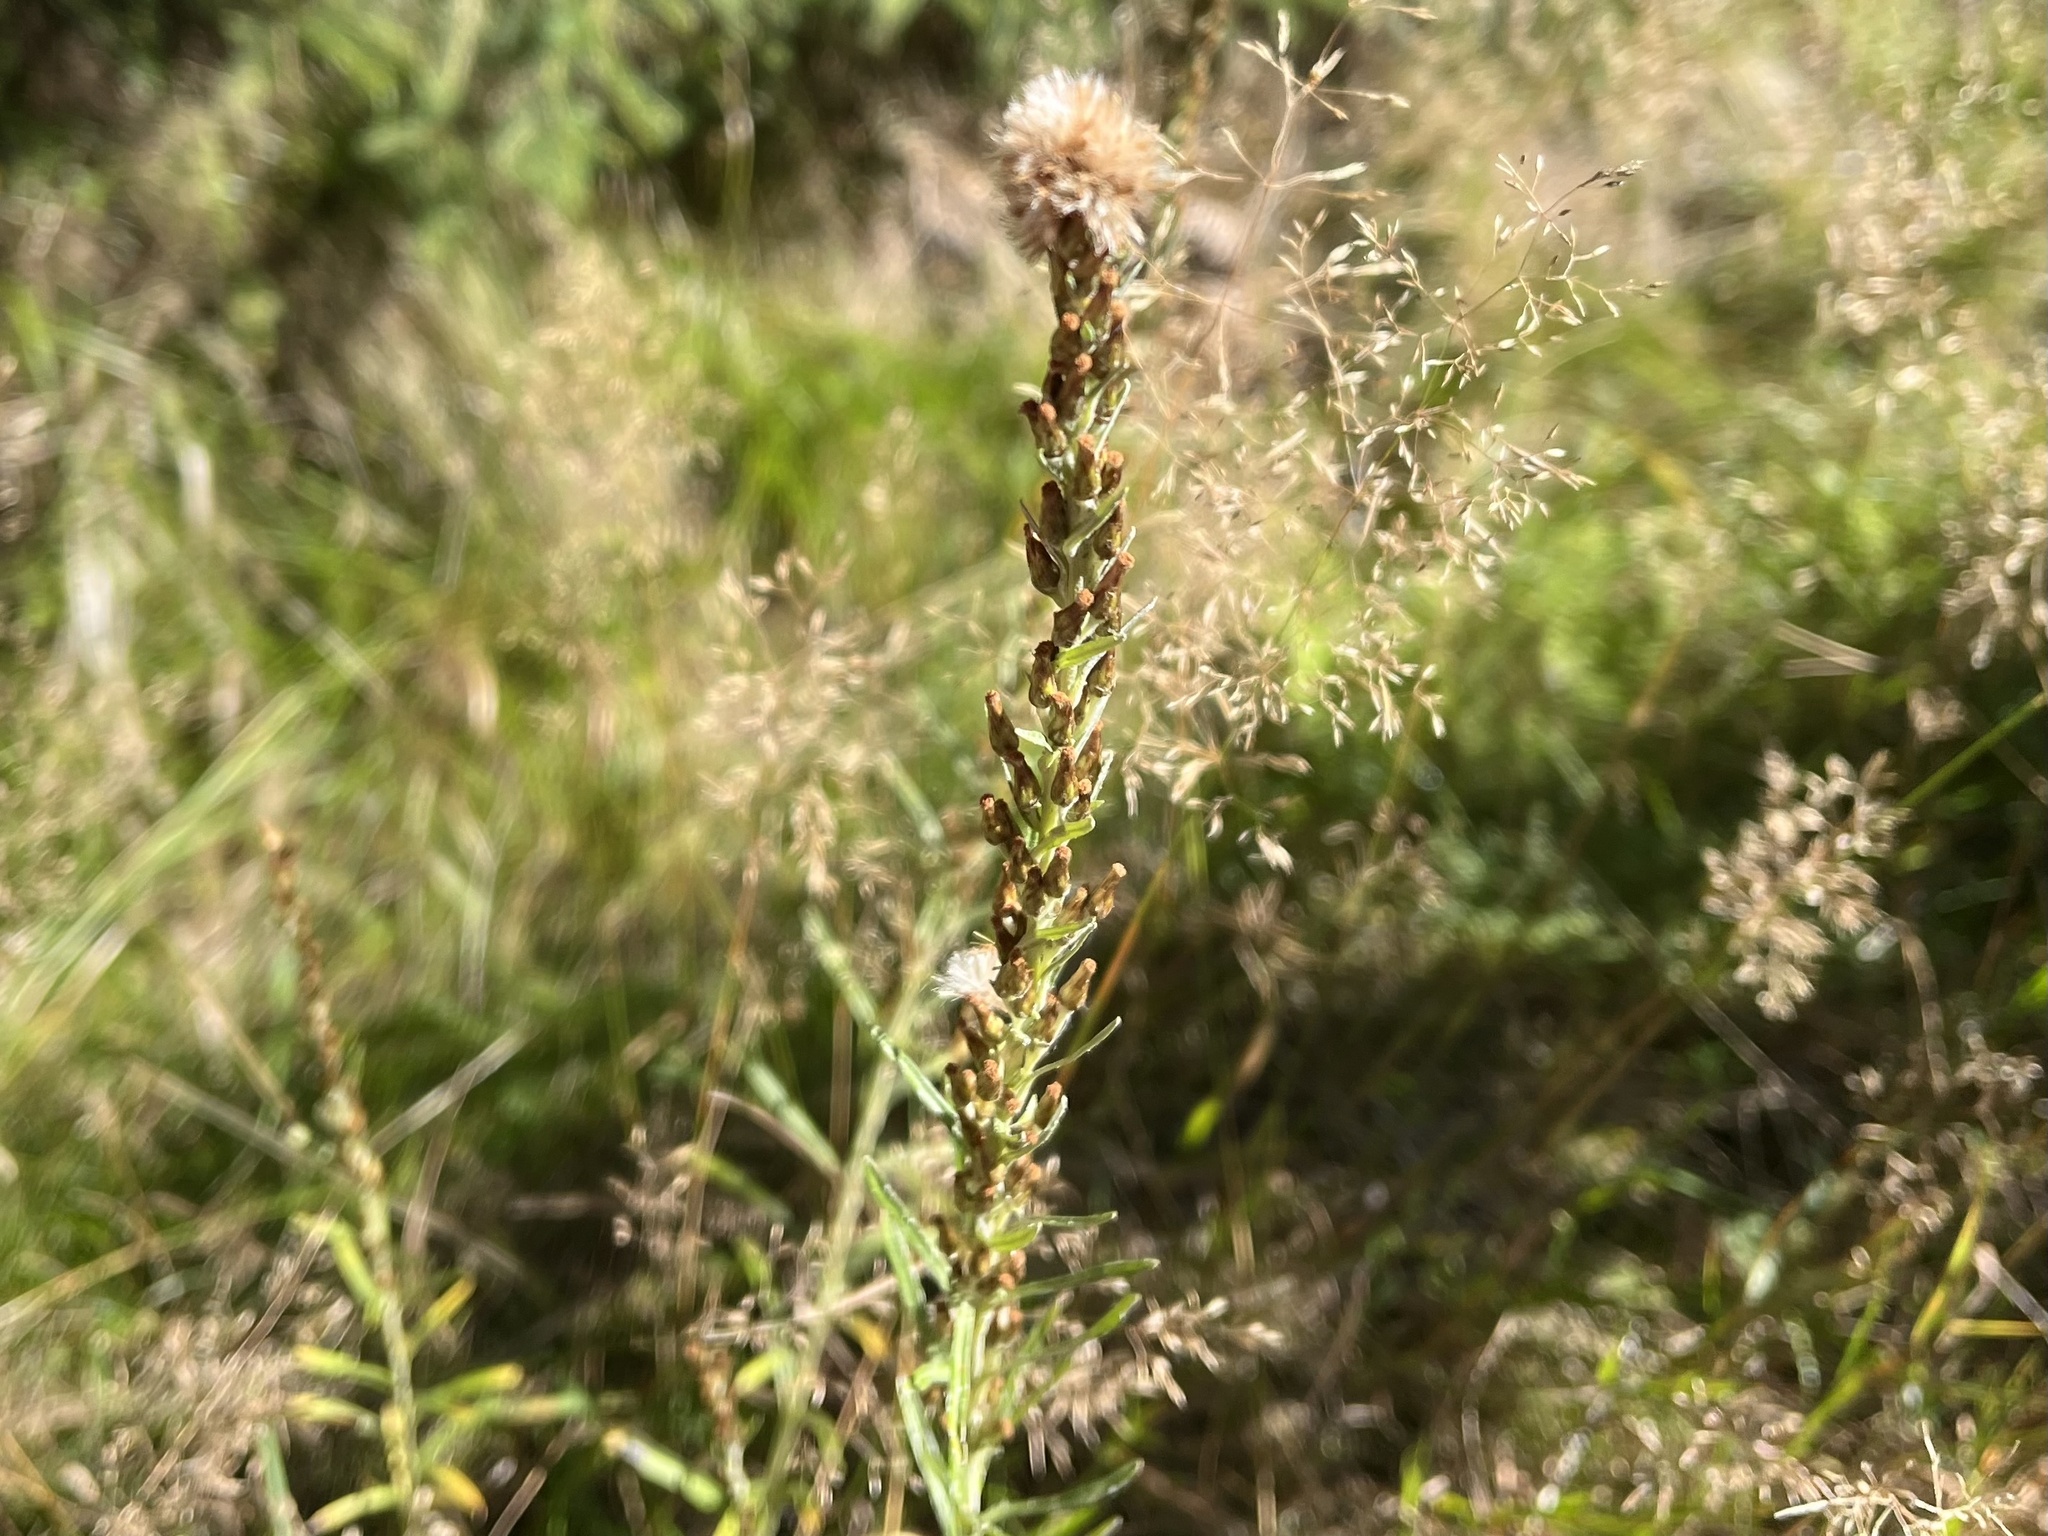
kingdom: Plantae
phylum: Tracheophyta
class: Magnoliopsida
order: Asterales
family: Asteraceae
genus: Omalotheca
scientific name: Omalotheca sylvatica
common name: Heath cudweed
